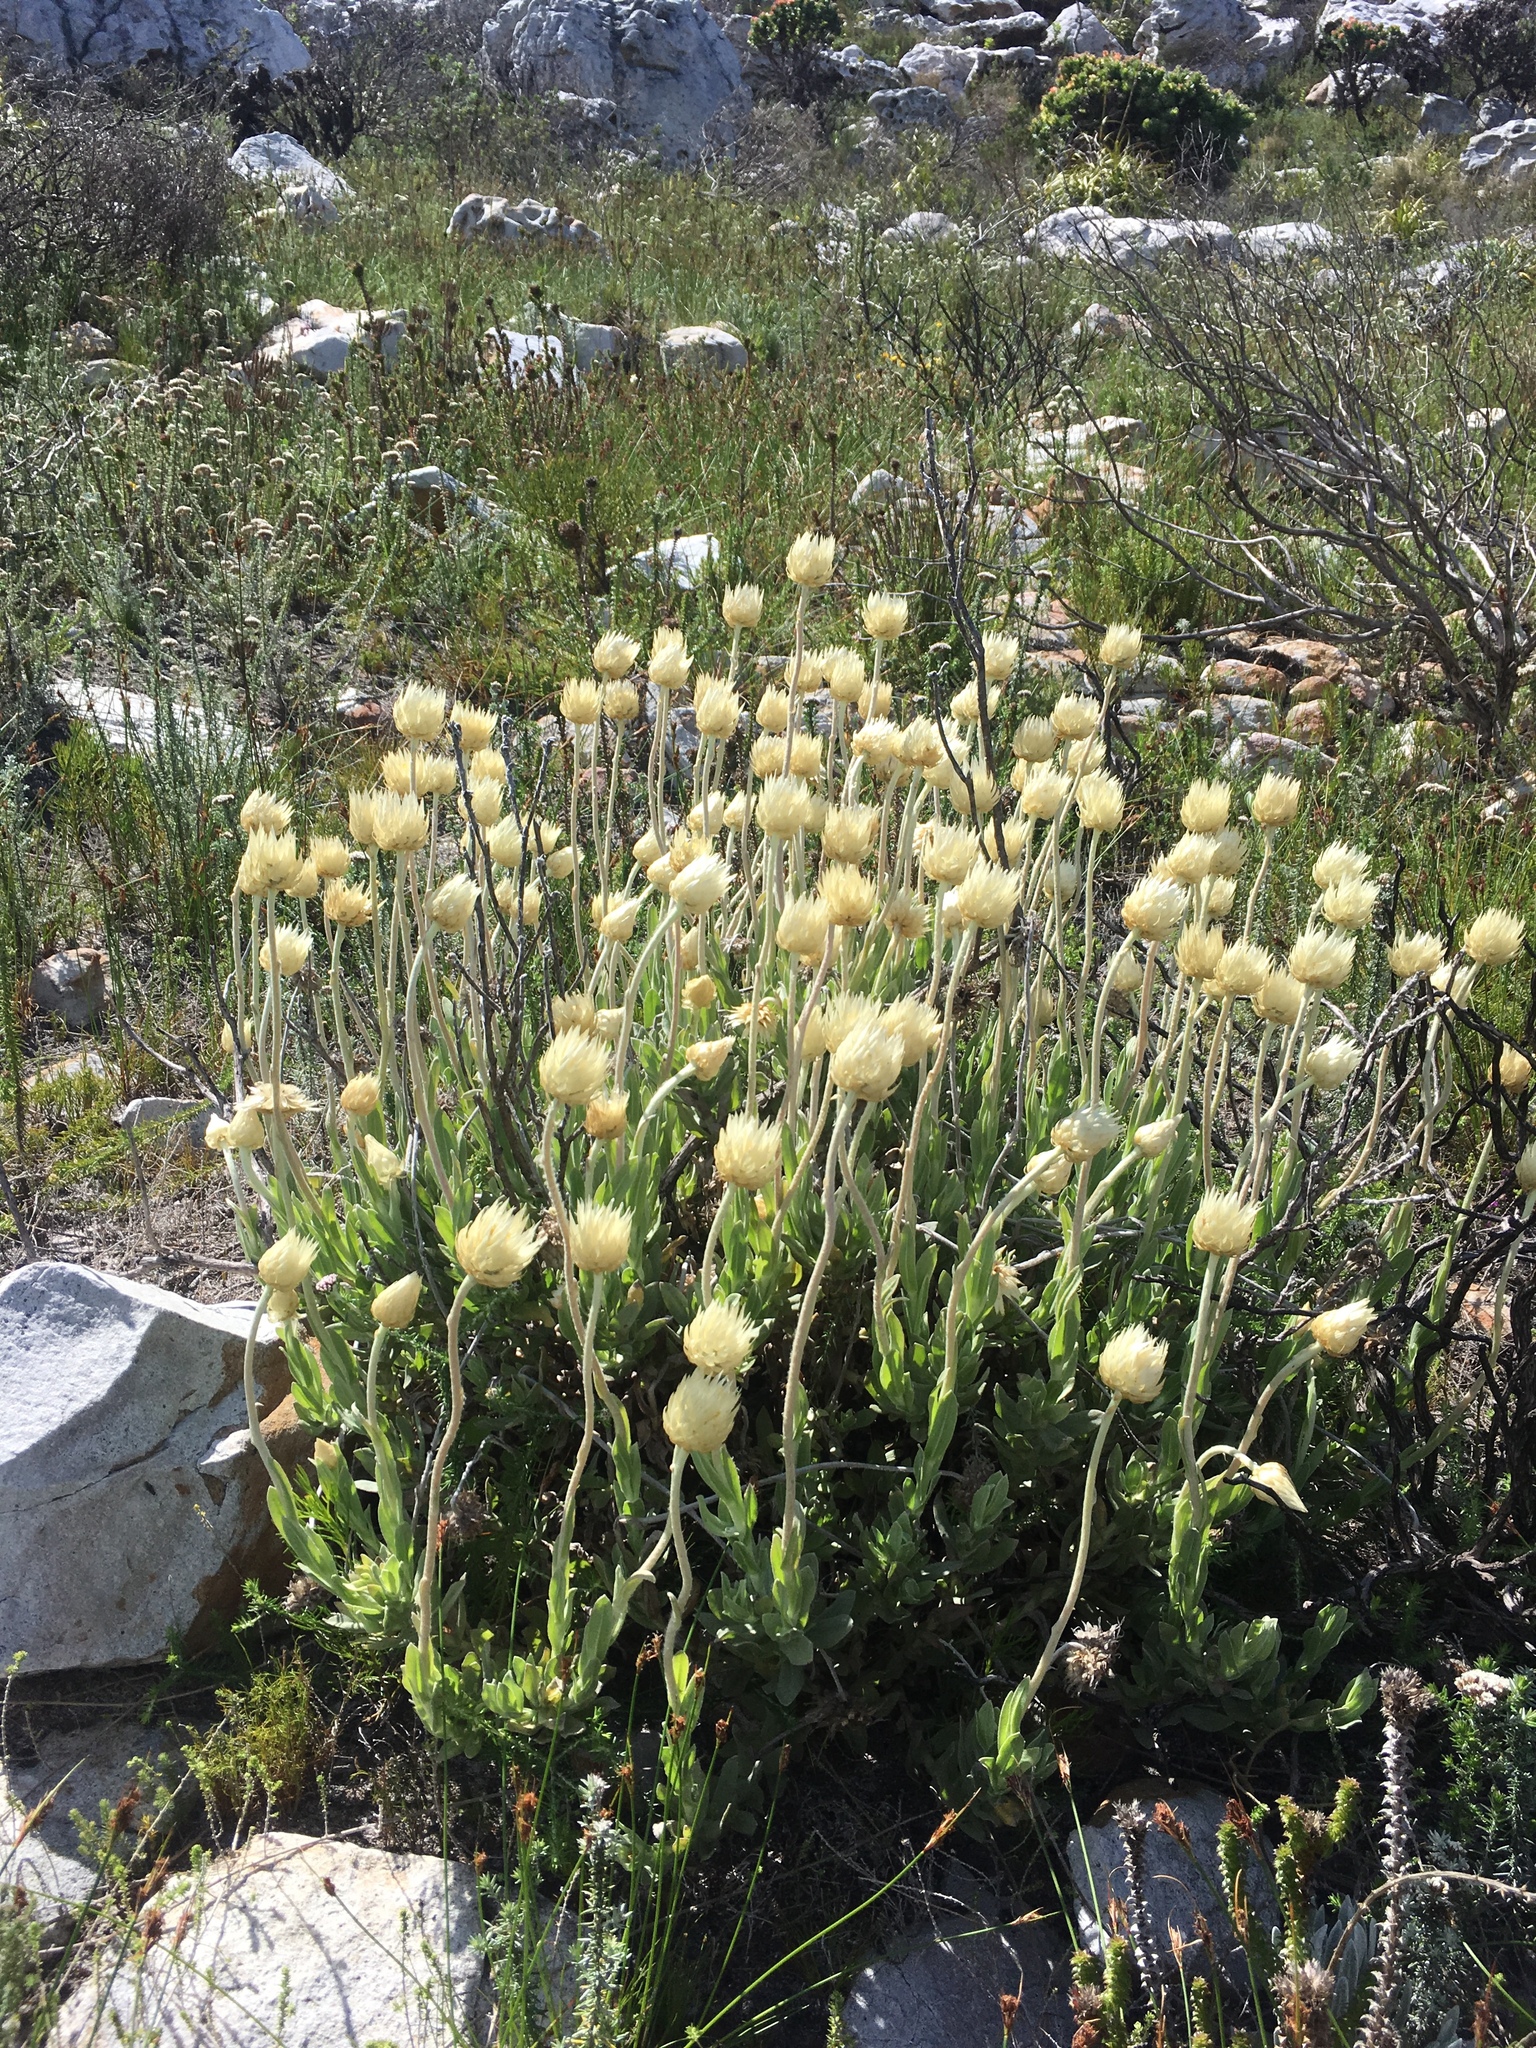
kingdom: Plantae
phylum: Tracheophyta
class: Magnoliopsida
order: Asterales
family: Asteraceae
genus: Syncarpha
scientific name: Syncarpha speciosissima
